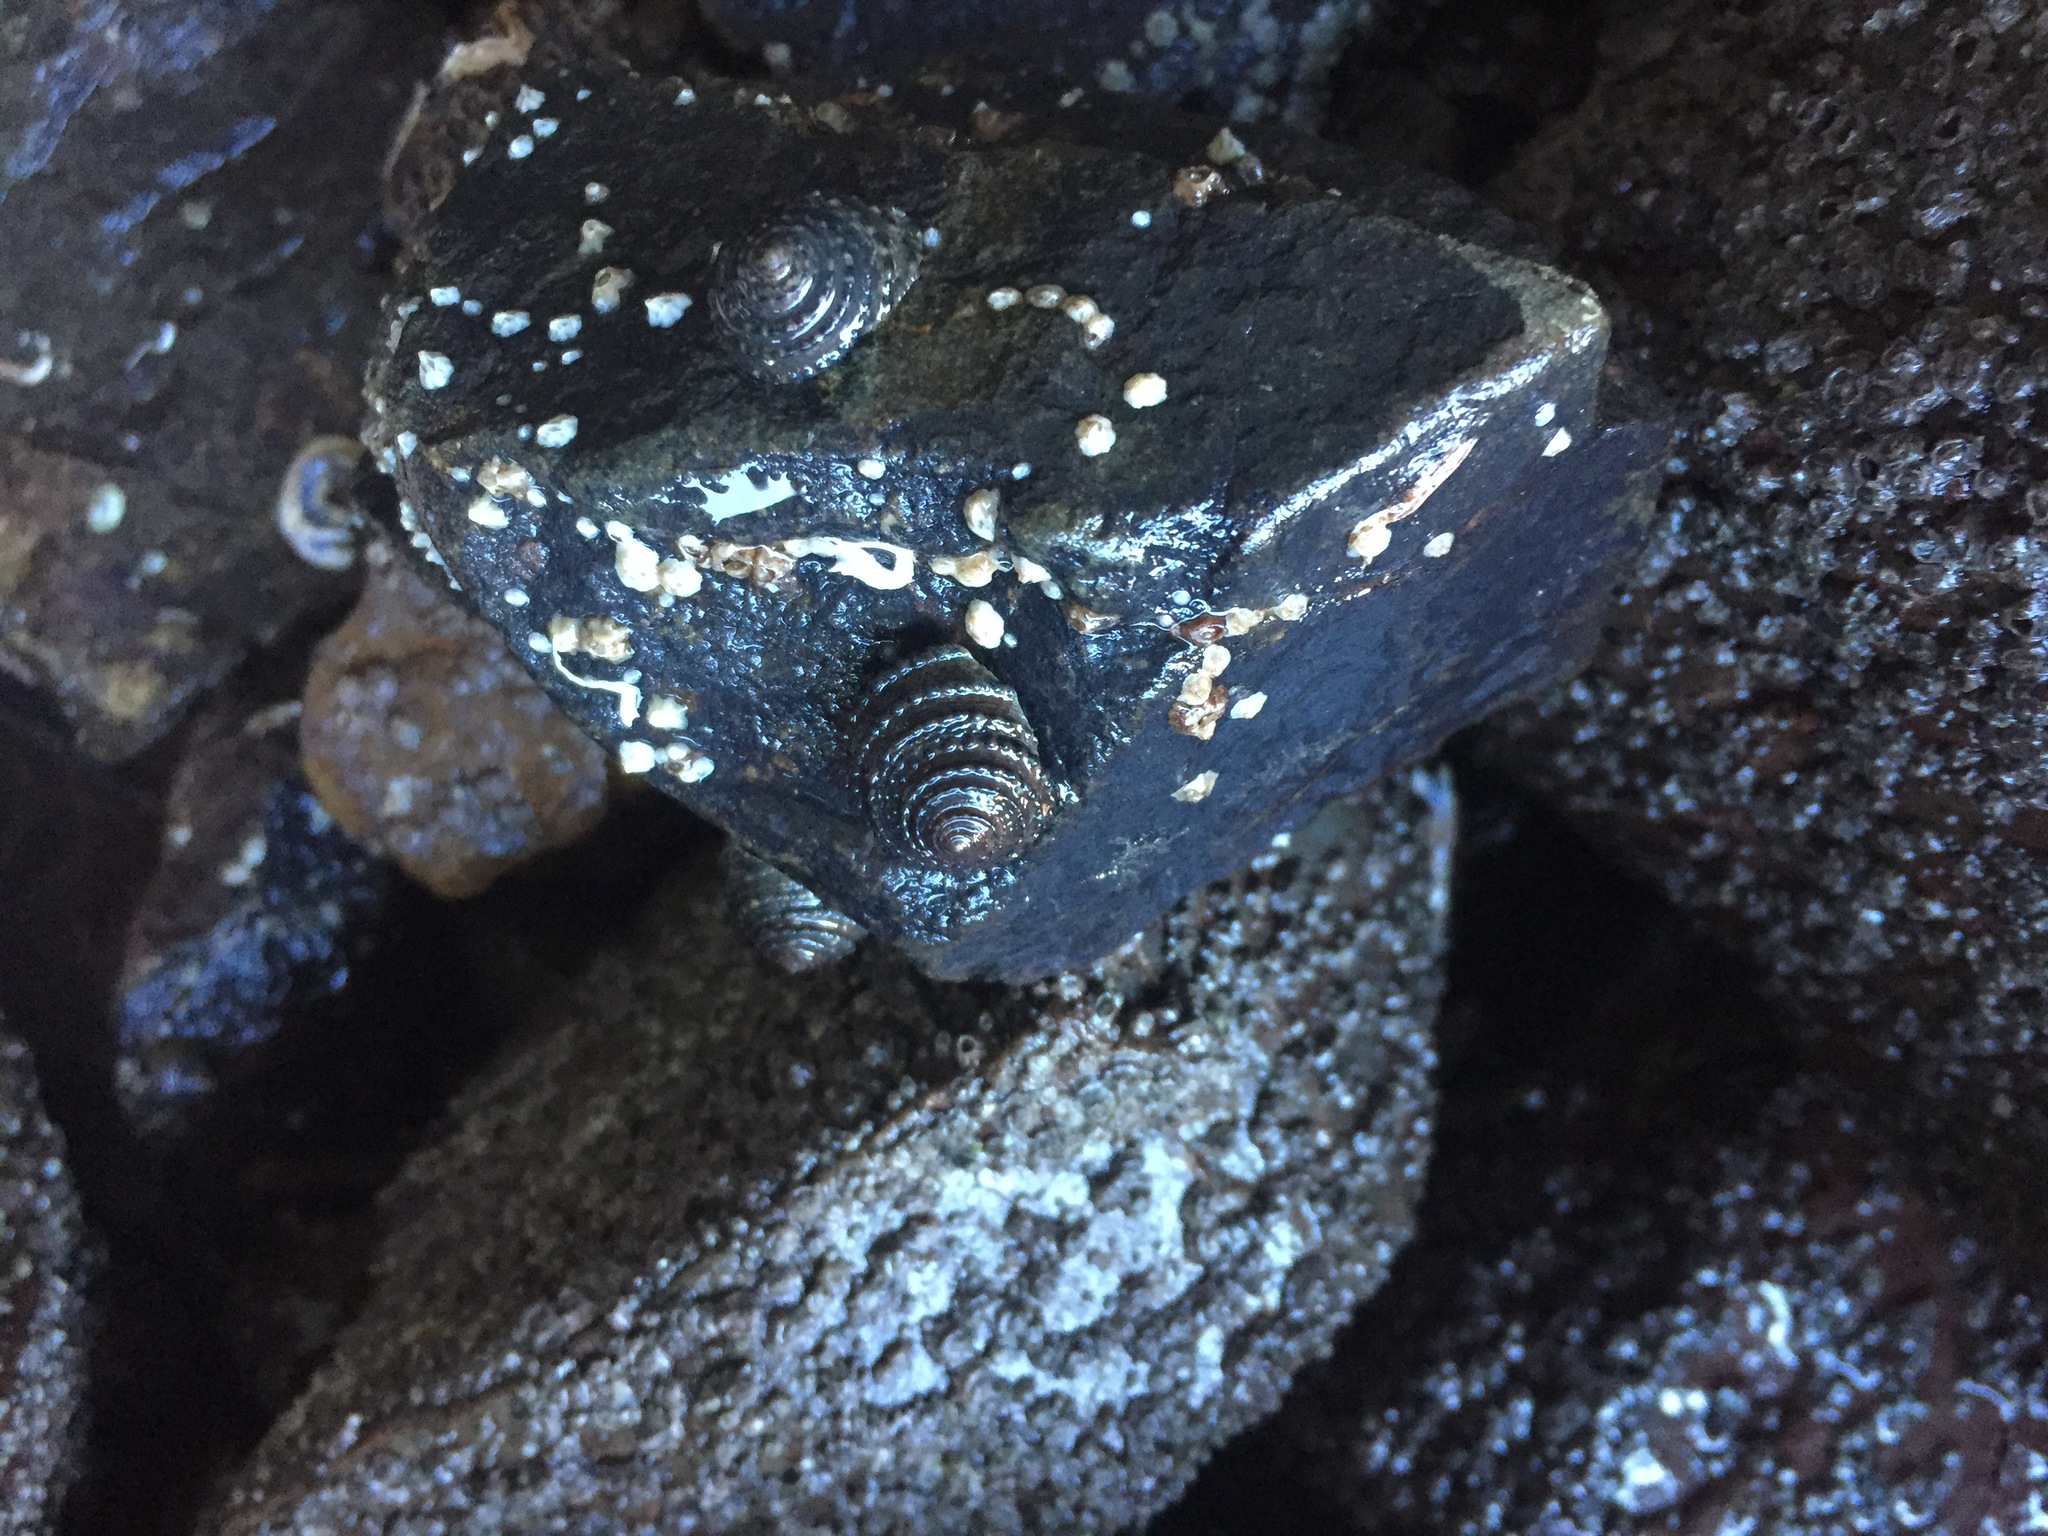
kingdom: Animalia
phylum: Mollusca
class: Gastropoda
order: Trochida
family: Trochidae
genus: Diloma
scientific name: Diloma bicanaliculatum
